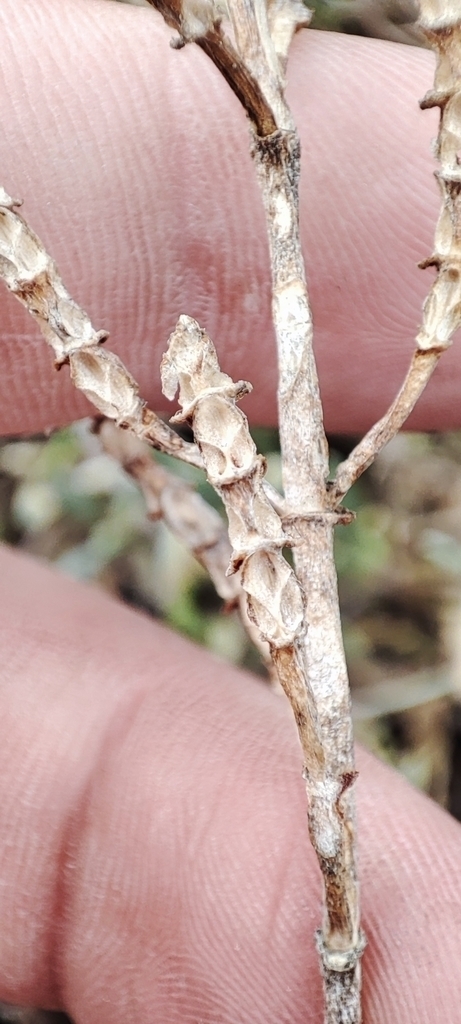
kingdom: Plantae
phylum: Tracheophyta
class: Magnoliopsida
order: Caryophyllales
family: Amaranthaceae
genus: Salicornia
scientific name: Salicornia perennans
